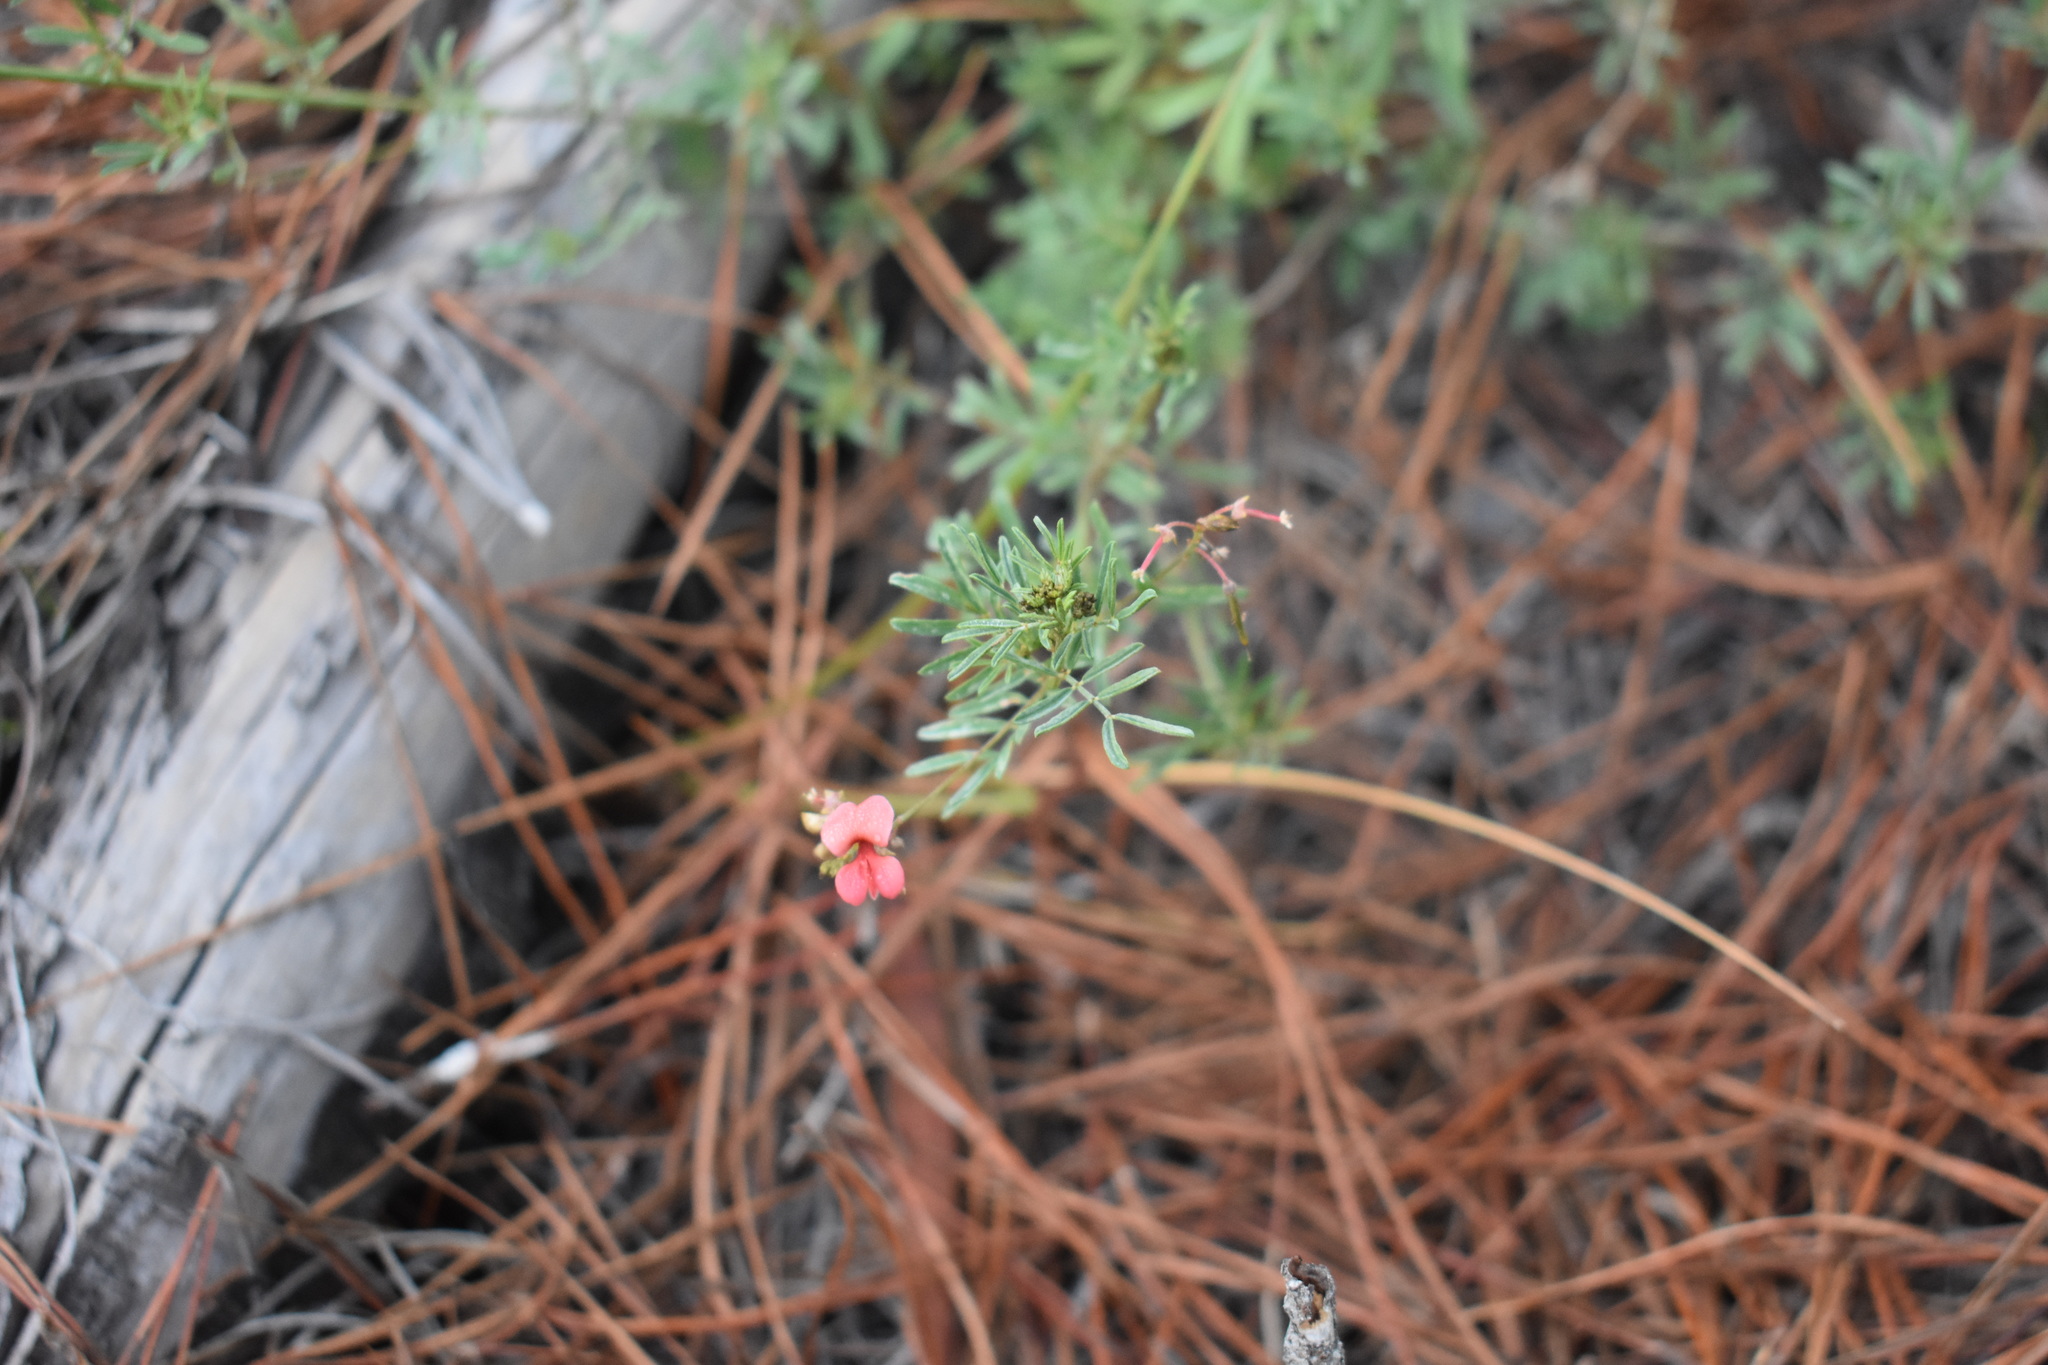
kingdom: Plantae
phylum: Tracheophyta
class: Magnoliopsida
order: Fabales
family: Fabaceae
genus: Indigofera
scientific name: Indigofera verrucosa
